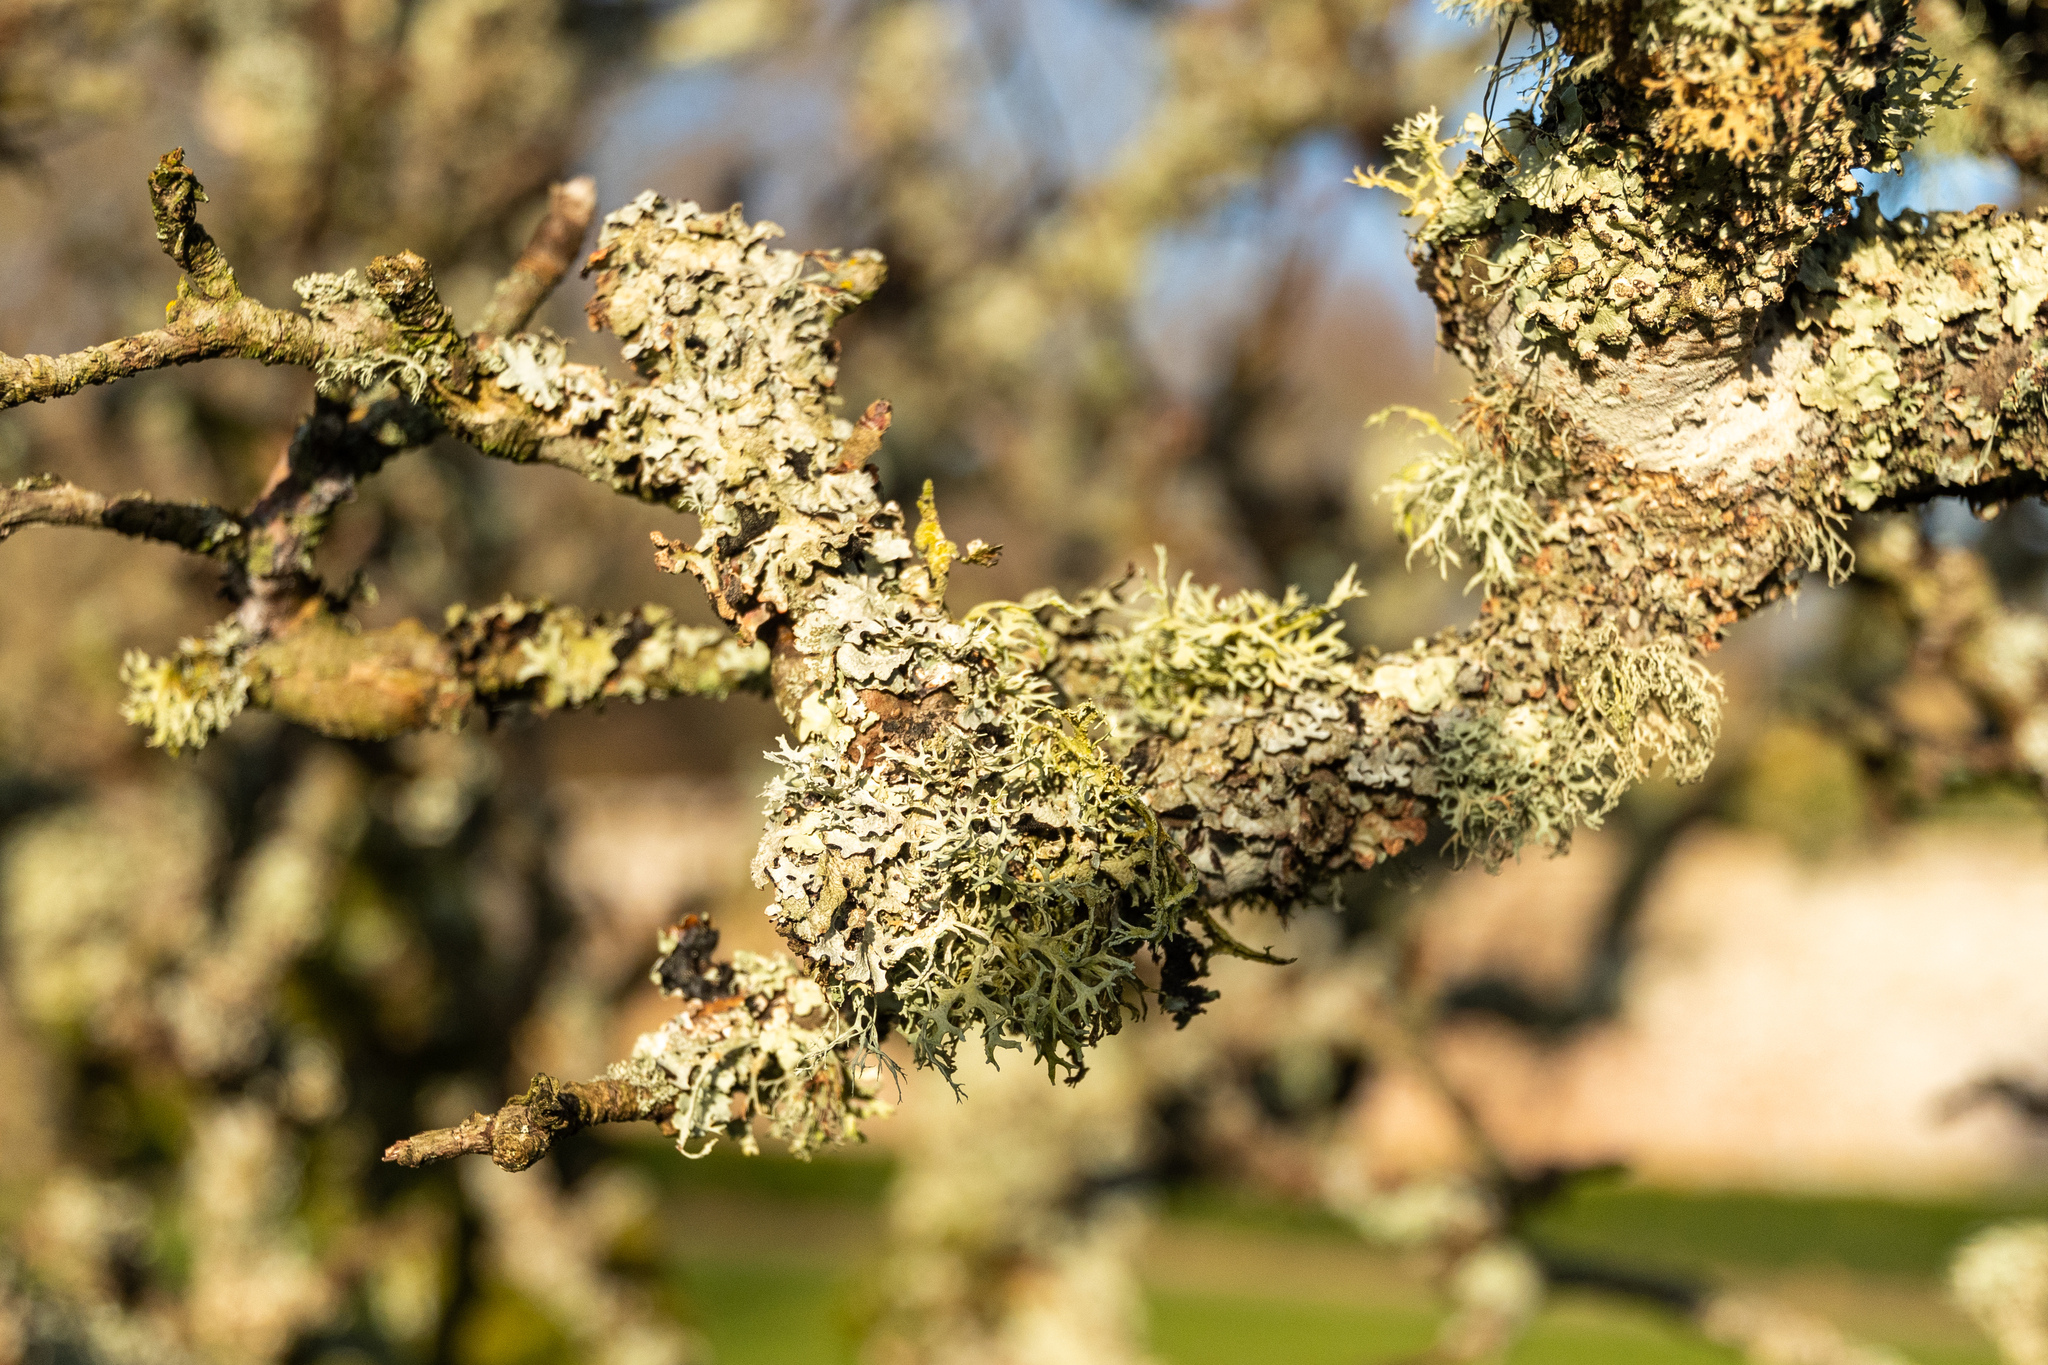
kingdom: Fungi
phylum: Ascomycota
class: Lecanoromycetes
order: Lecanorales
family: Parmeliaceae
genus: Evernia
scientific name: Evernia prunastri
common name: Oak moss
